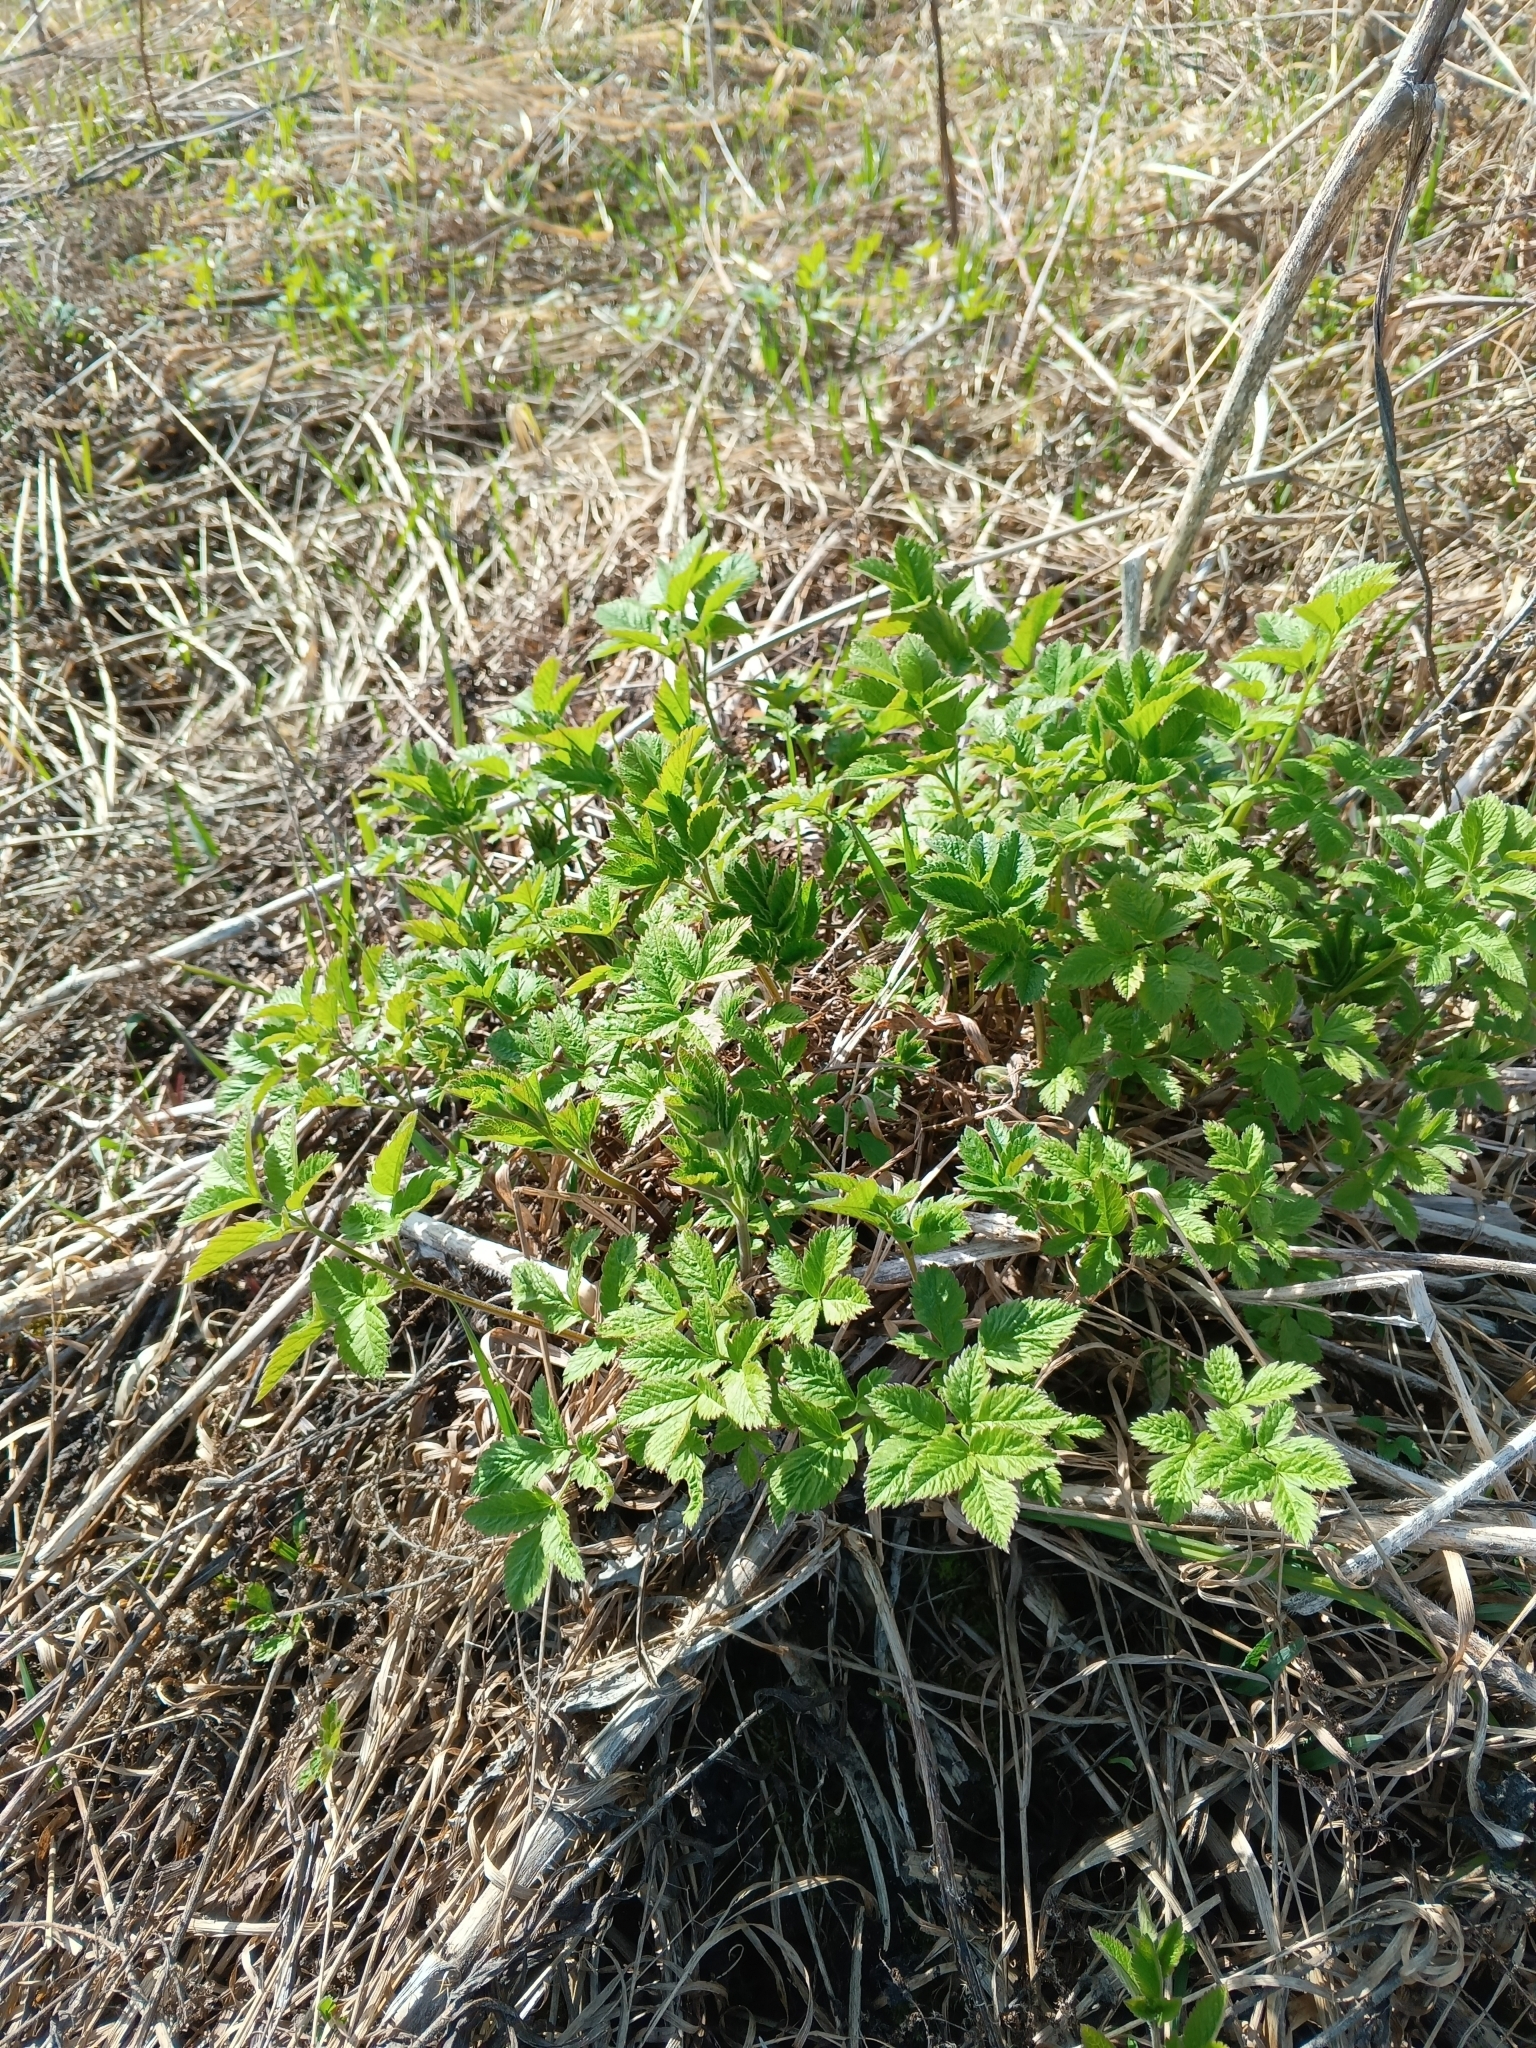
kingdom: Plantae
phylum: Tracheophyta
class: Magnoliopsida
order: Apiales
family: Apiaceae
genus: Chaerophyllum
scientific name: Chaerophyllum aromaticum
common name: Broadleaf chervil
